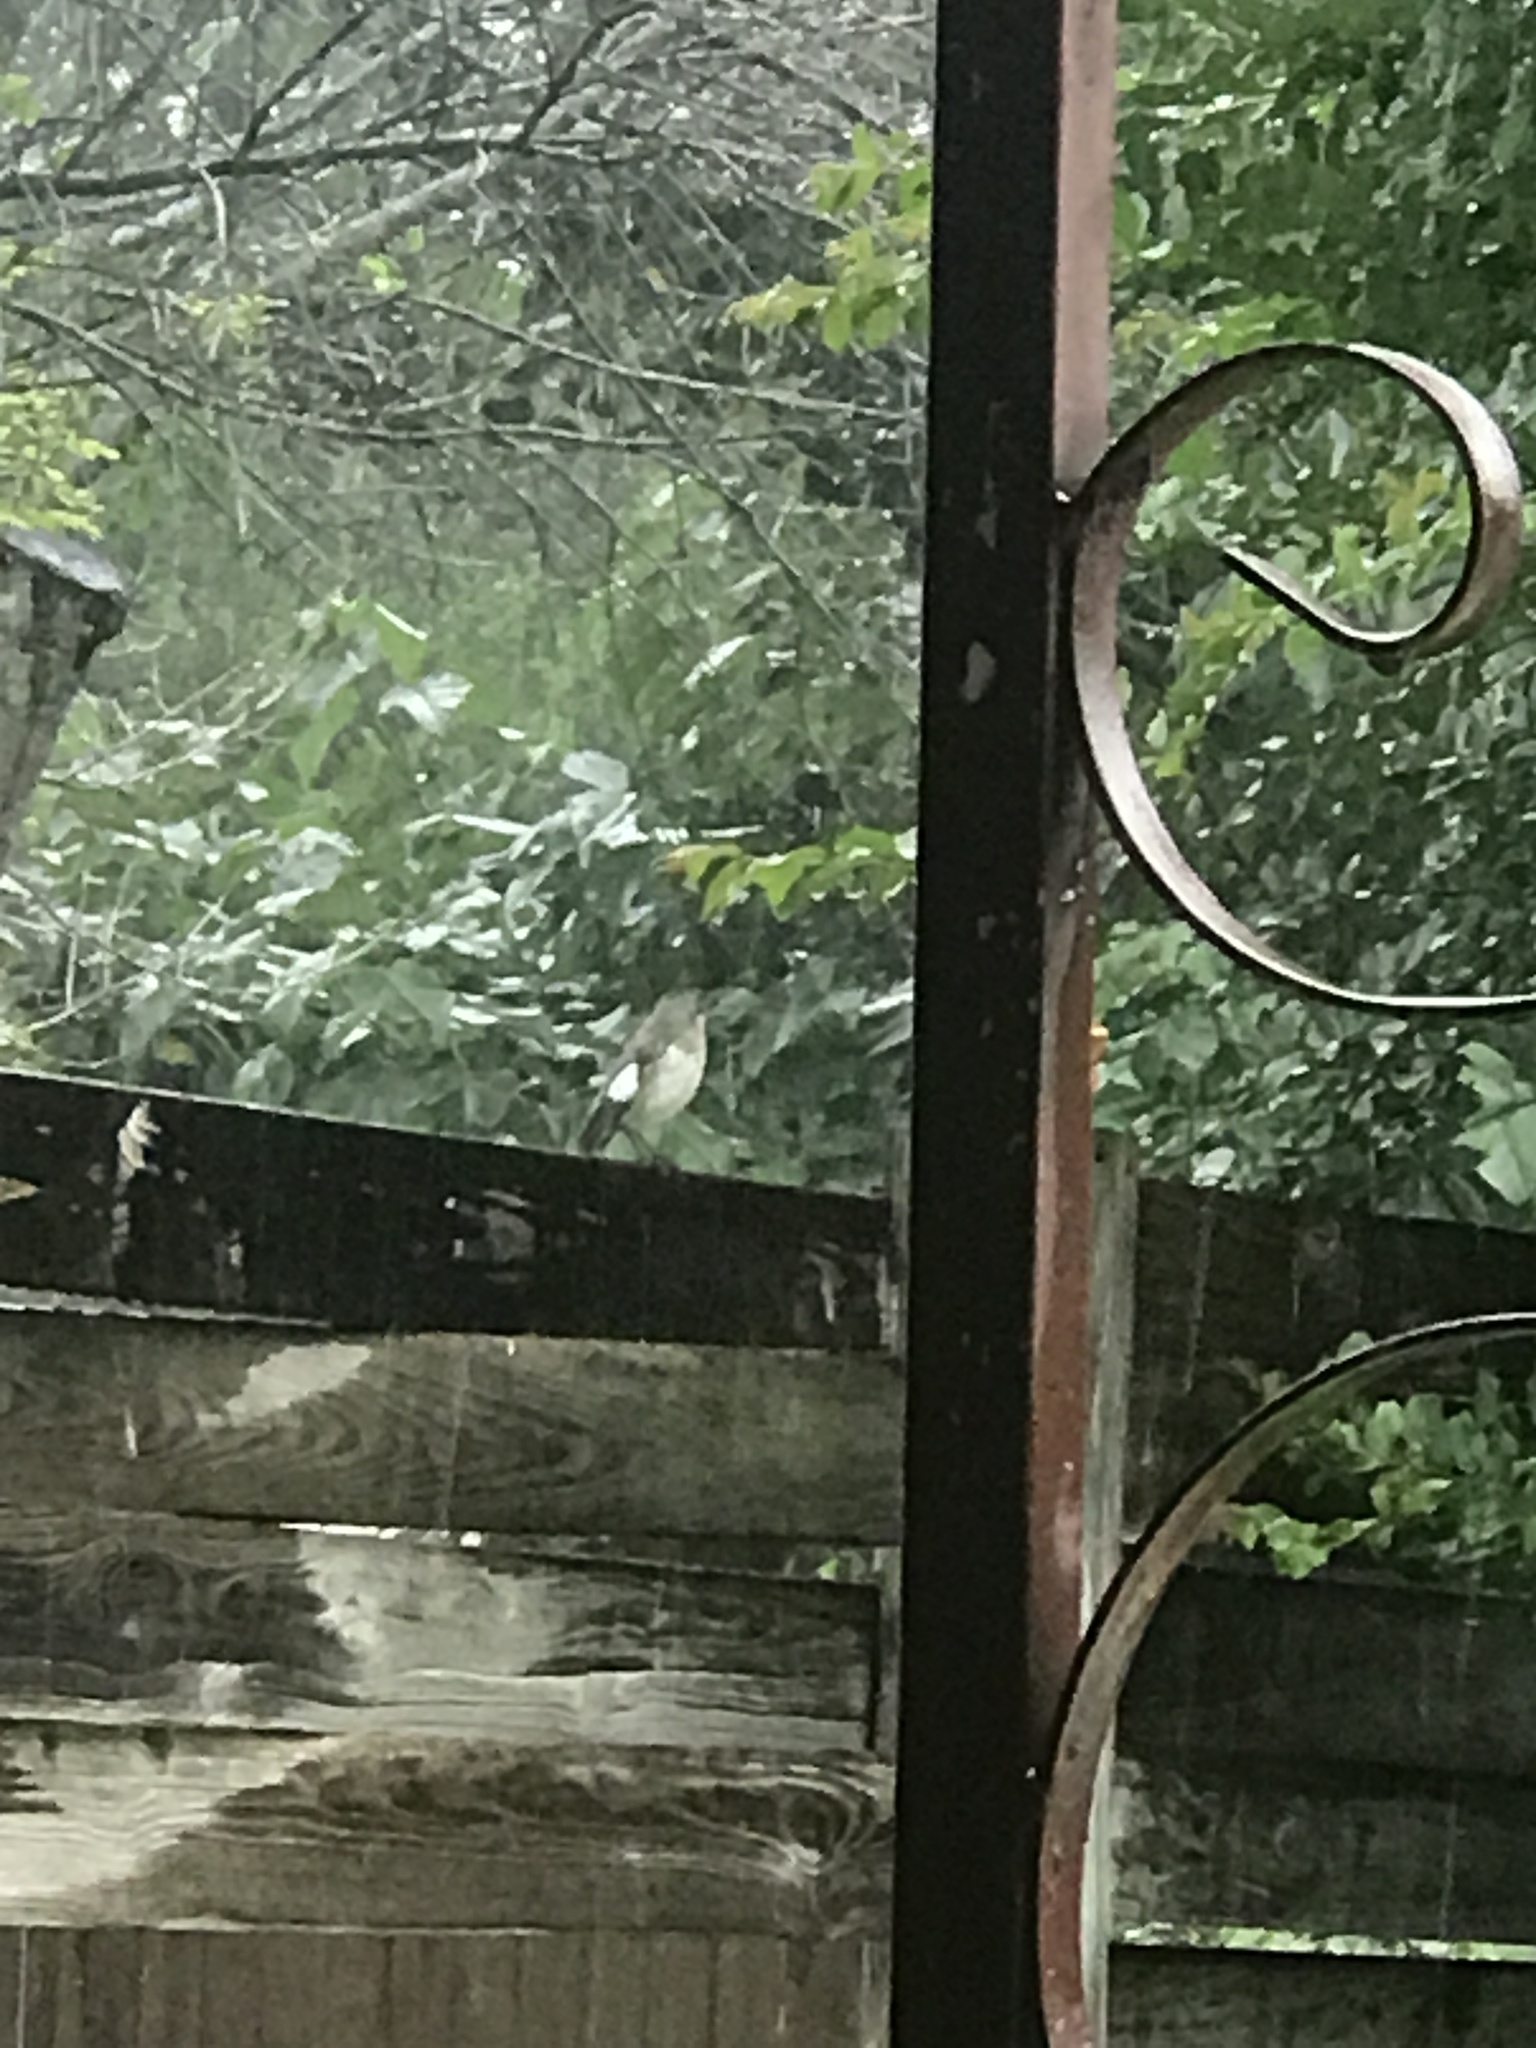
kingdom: Animalia
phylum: Chordata
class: Aves
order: Passeriformes
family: Mimidae
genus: Mimus
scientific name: Mimus polyglottos
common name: Northern mockingbird
